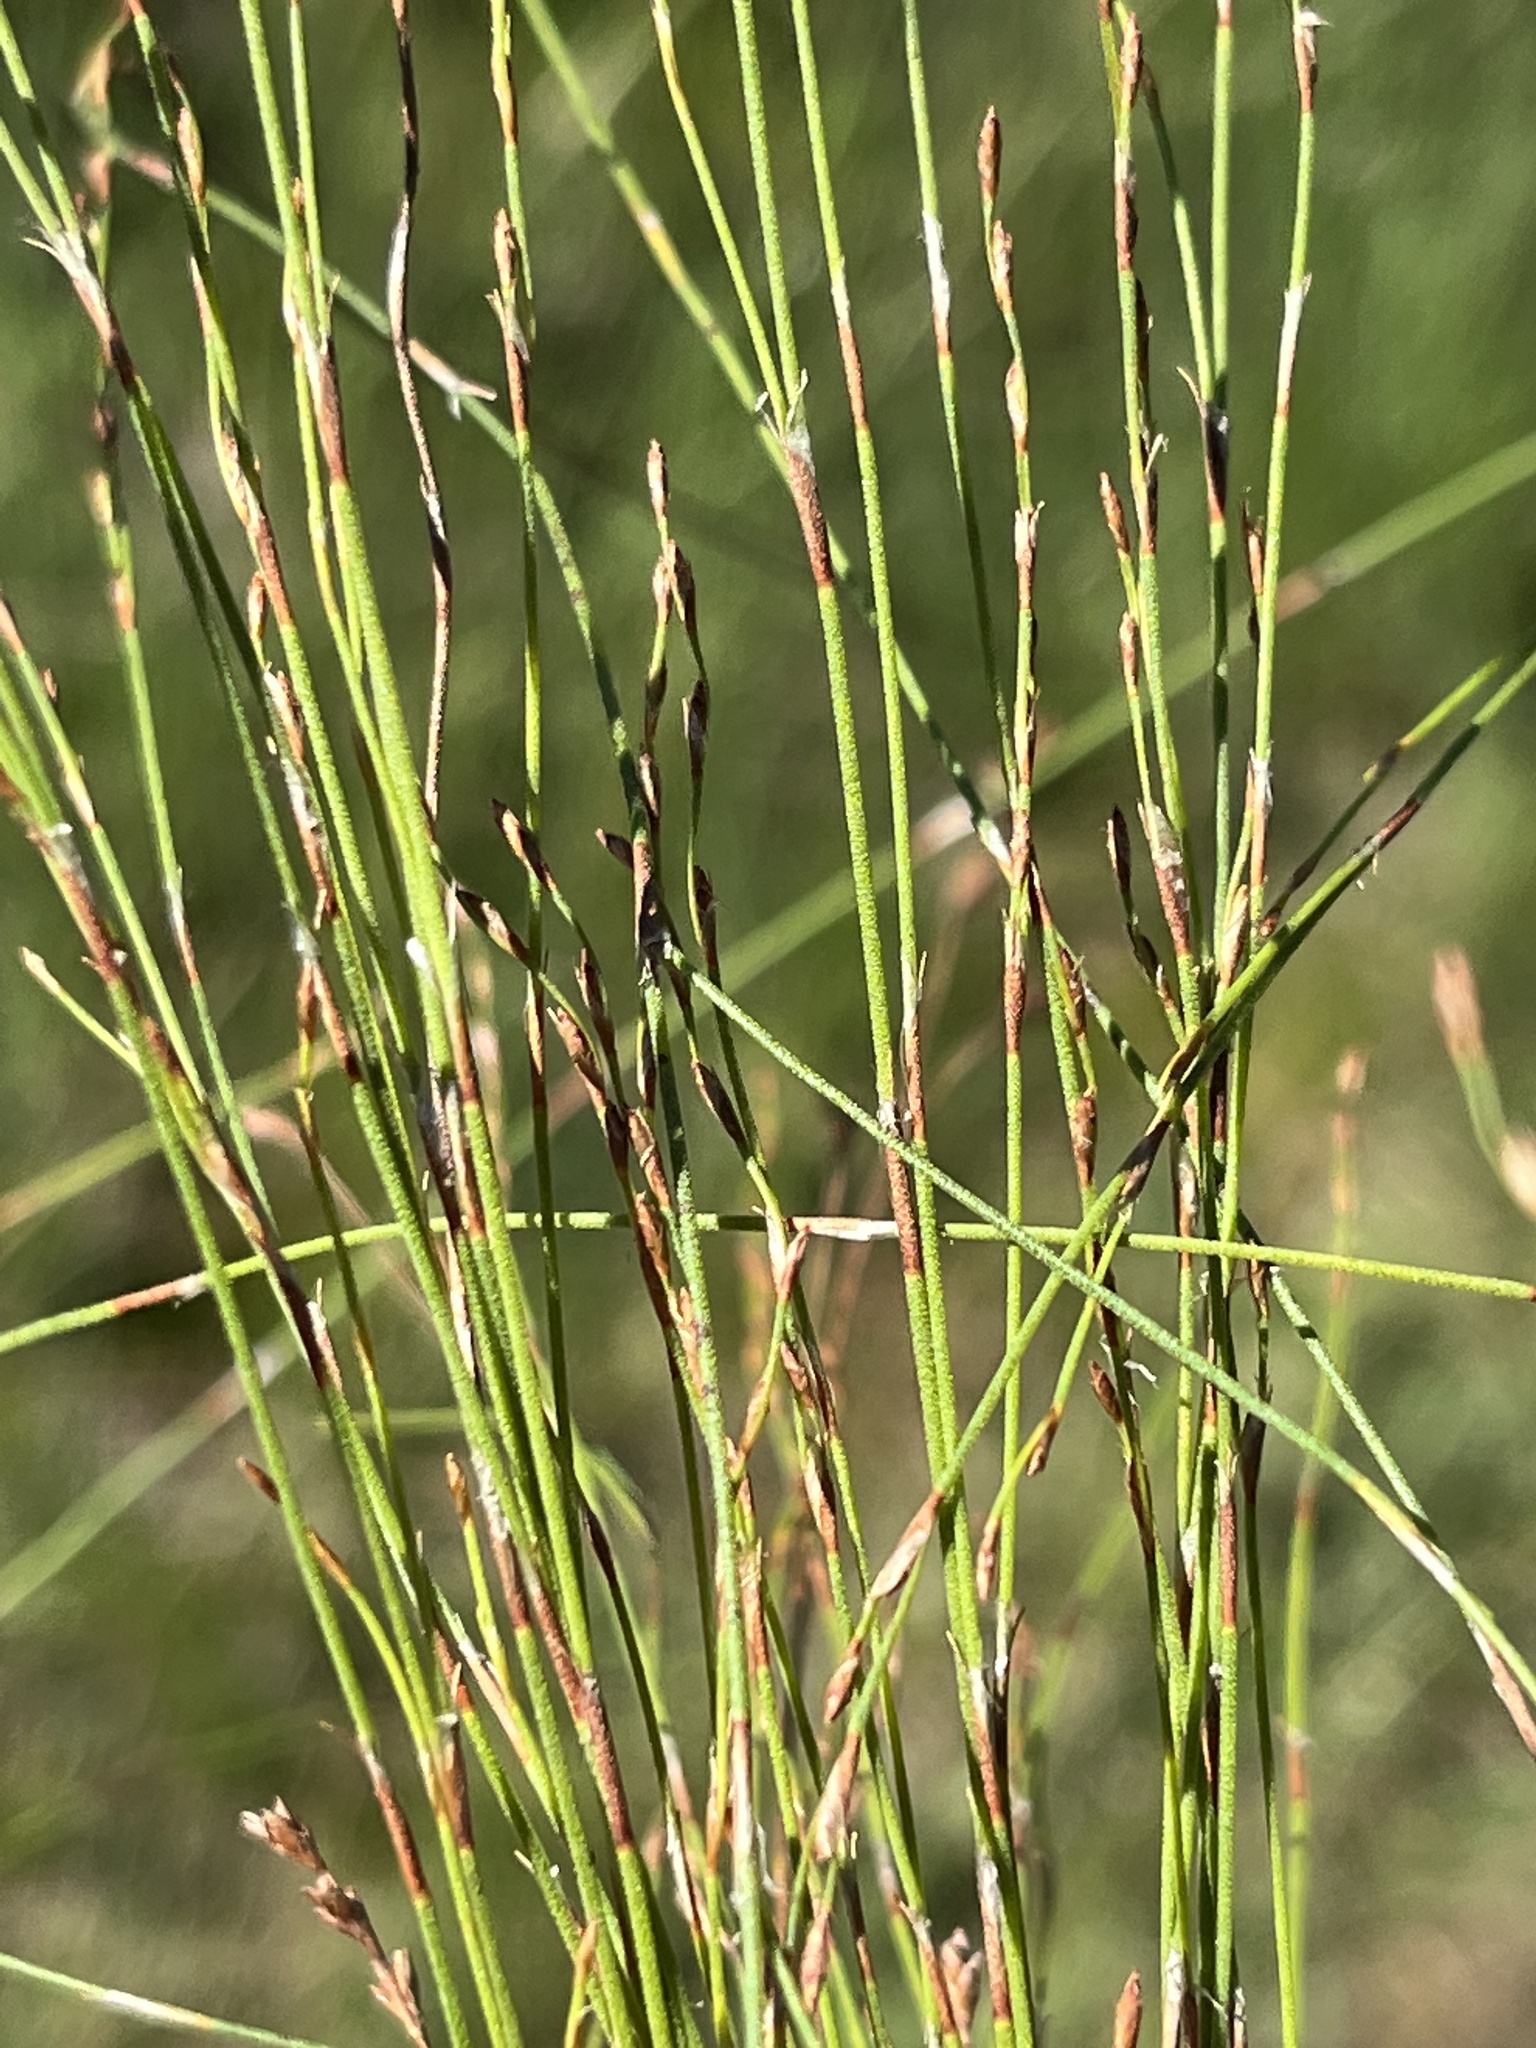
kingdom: Plantae
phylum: Tracheophyta
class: Liliopsida
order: Poales
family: Restionaceae
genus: Restio
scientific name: Restio albotuberculatus
